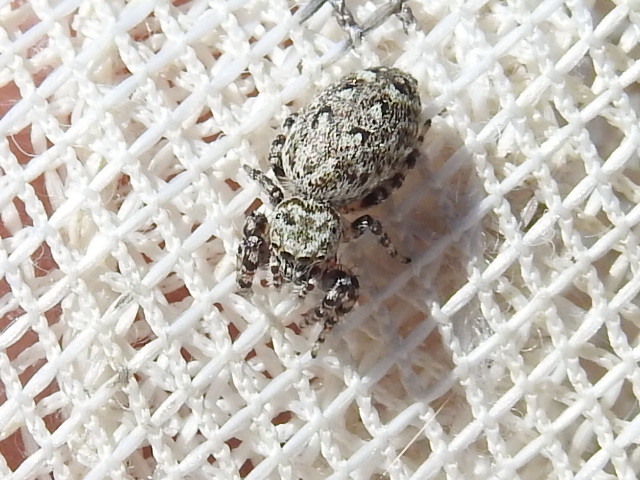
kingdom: Animalia
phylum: Arthropoda
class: Arachnida
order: Araneae
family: Salticidae
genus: Pelegrina
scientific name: Pelegrina galathea
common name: Jumping spiders
